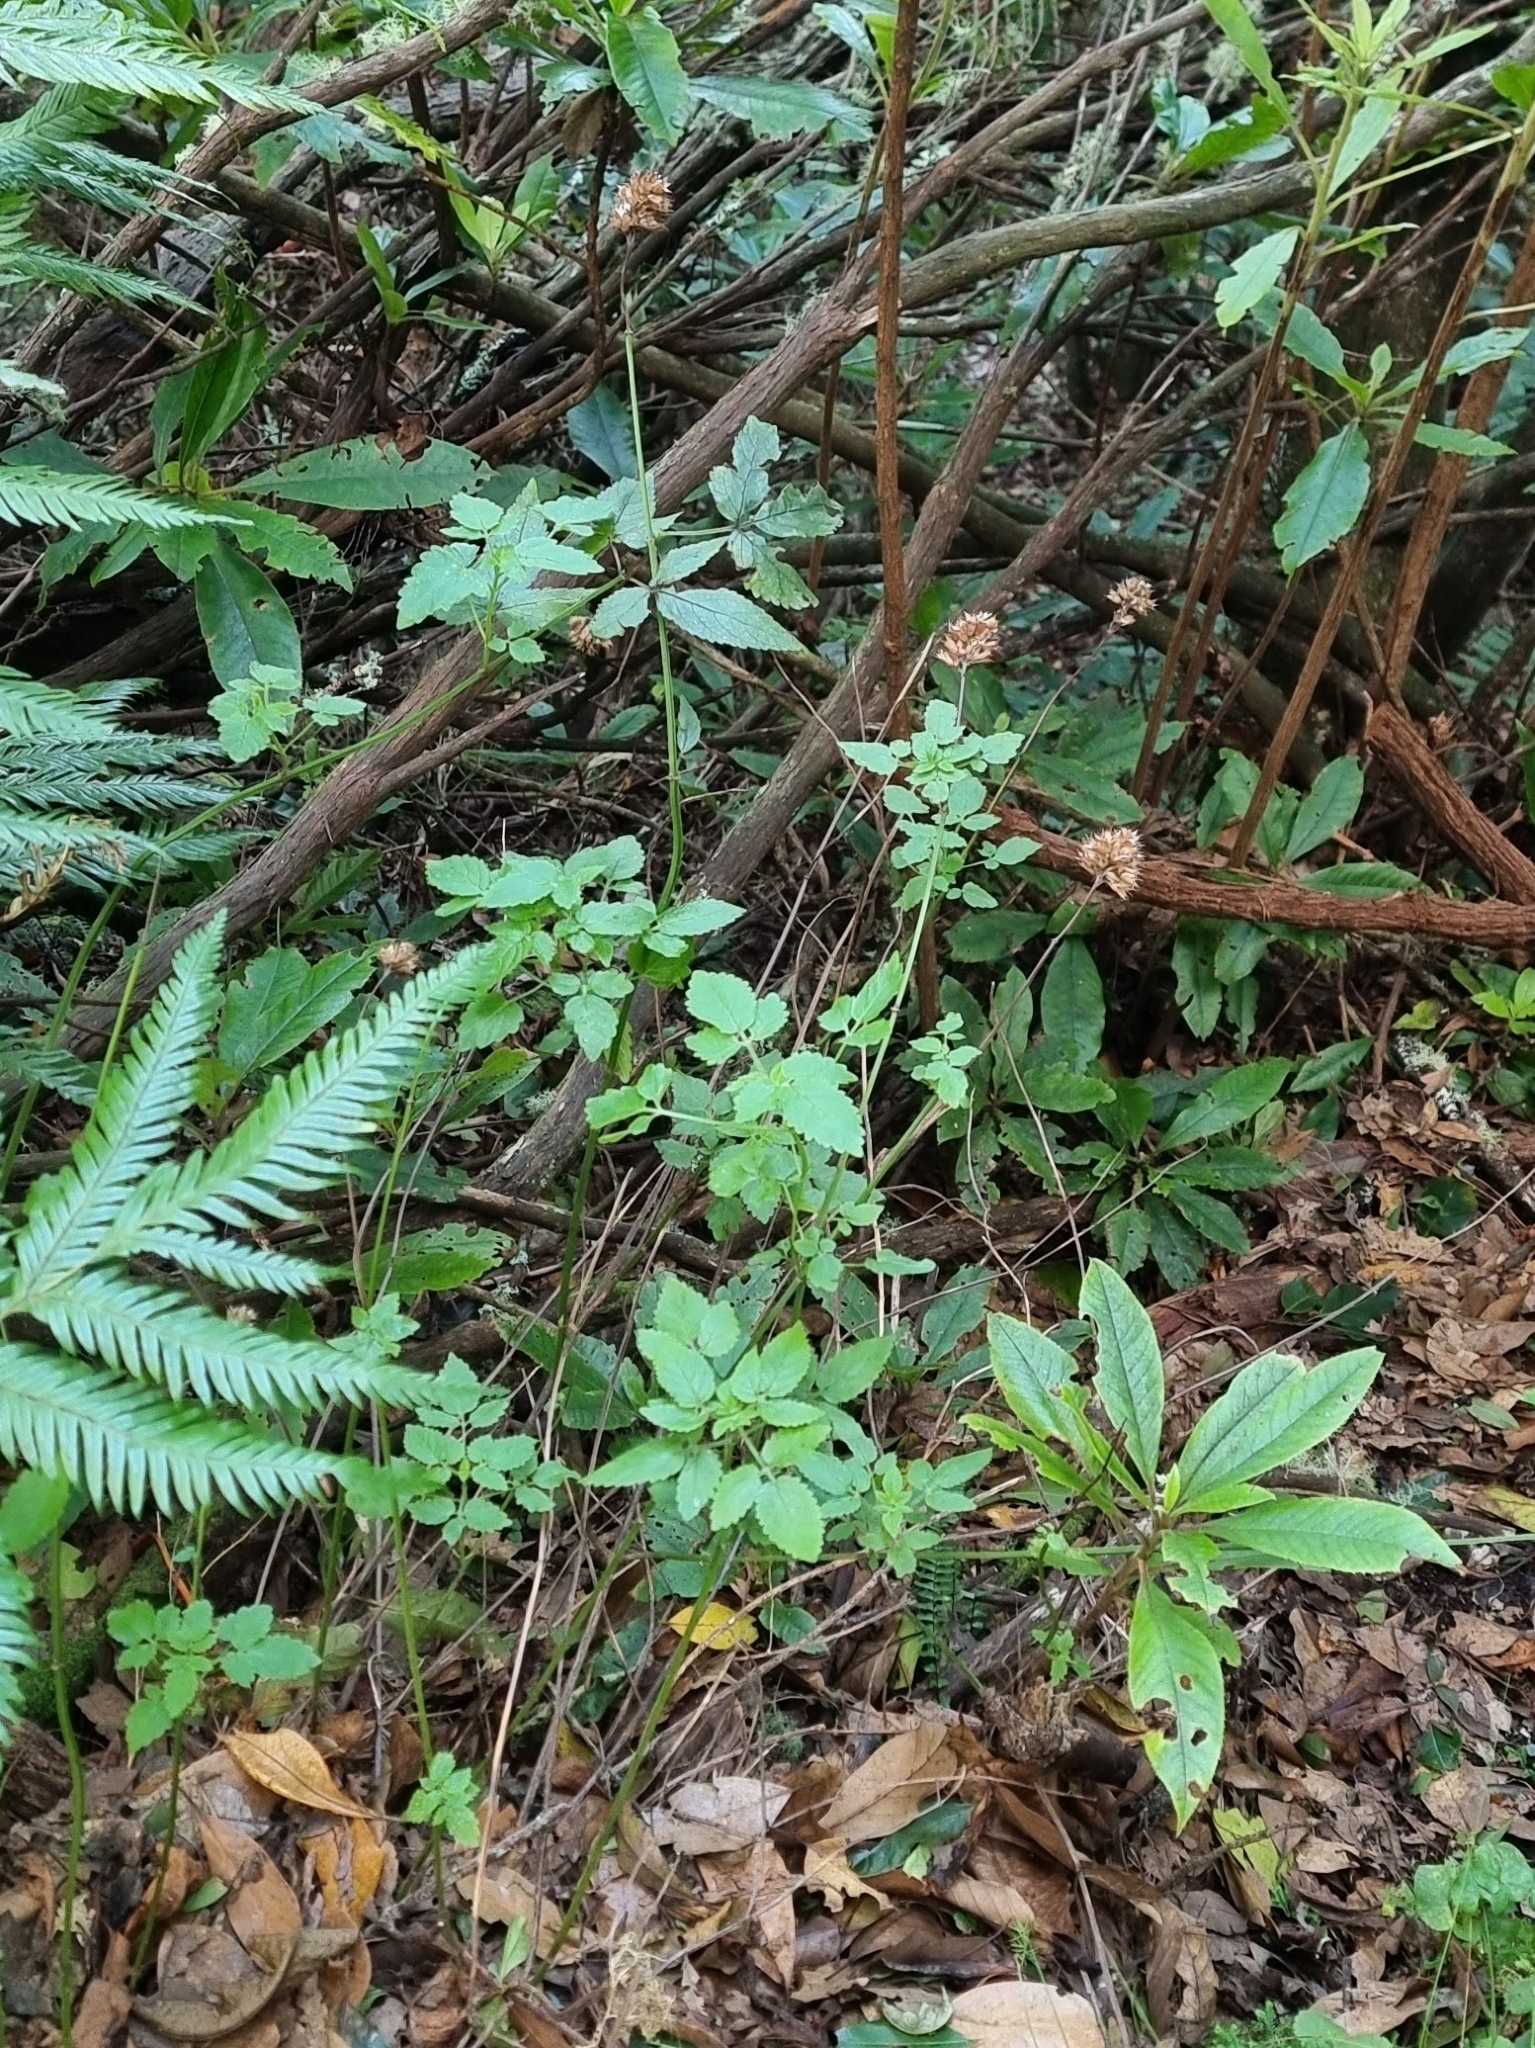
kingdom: Plantae
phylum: Tracheophyta
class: Magnoliopsida
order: Lamiales
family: Lamiaceae
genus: Cedronella
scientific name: Cedronella canariensis
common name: Canary islands balm
